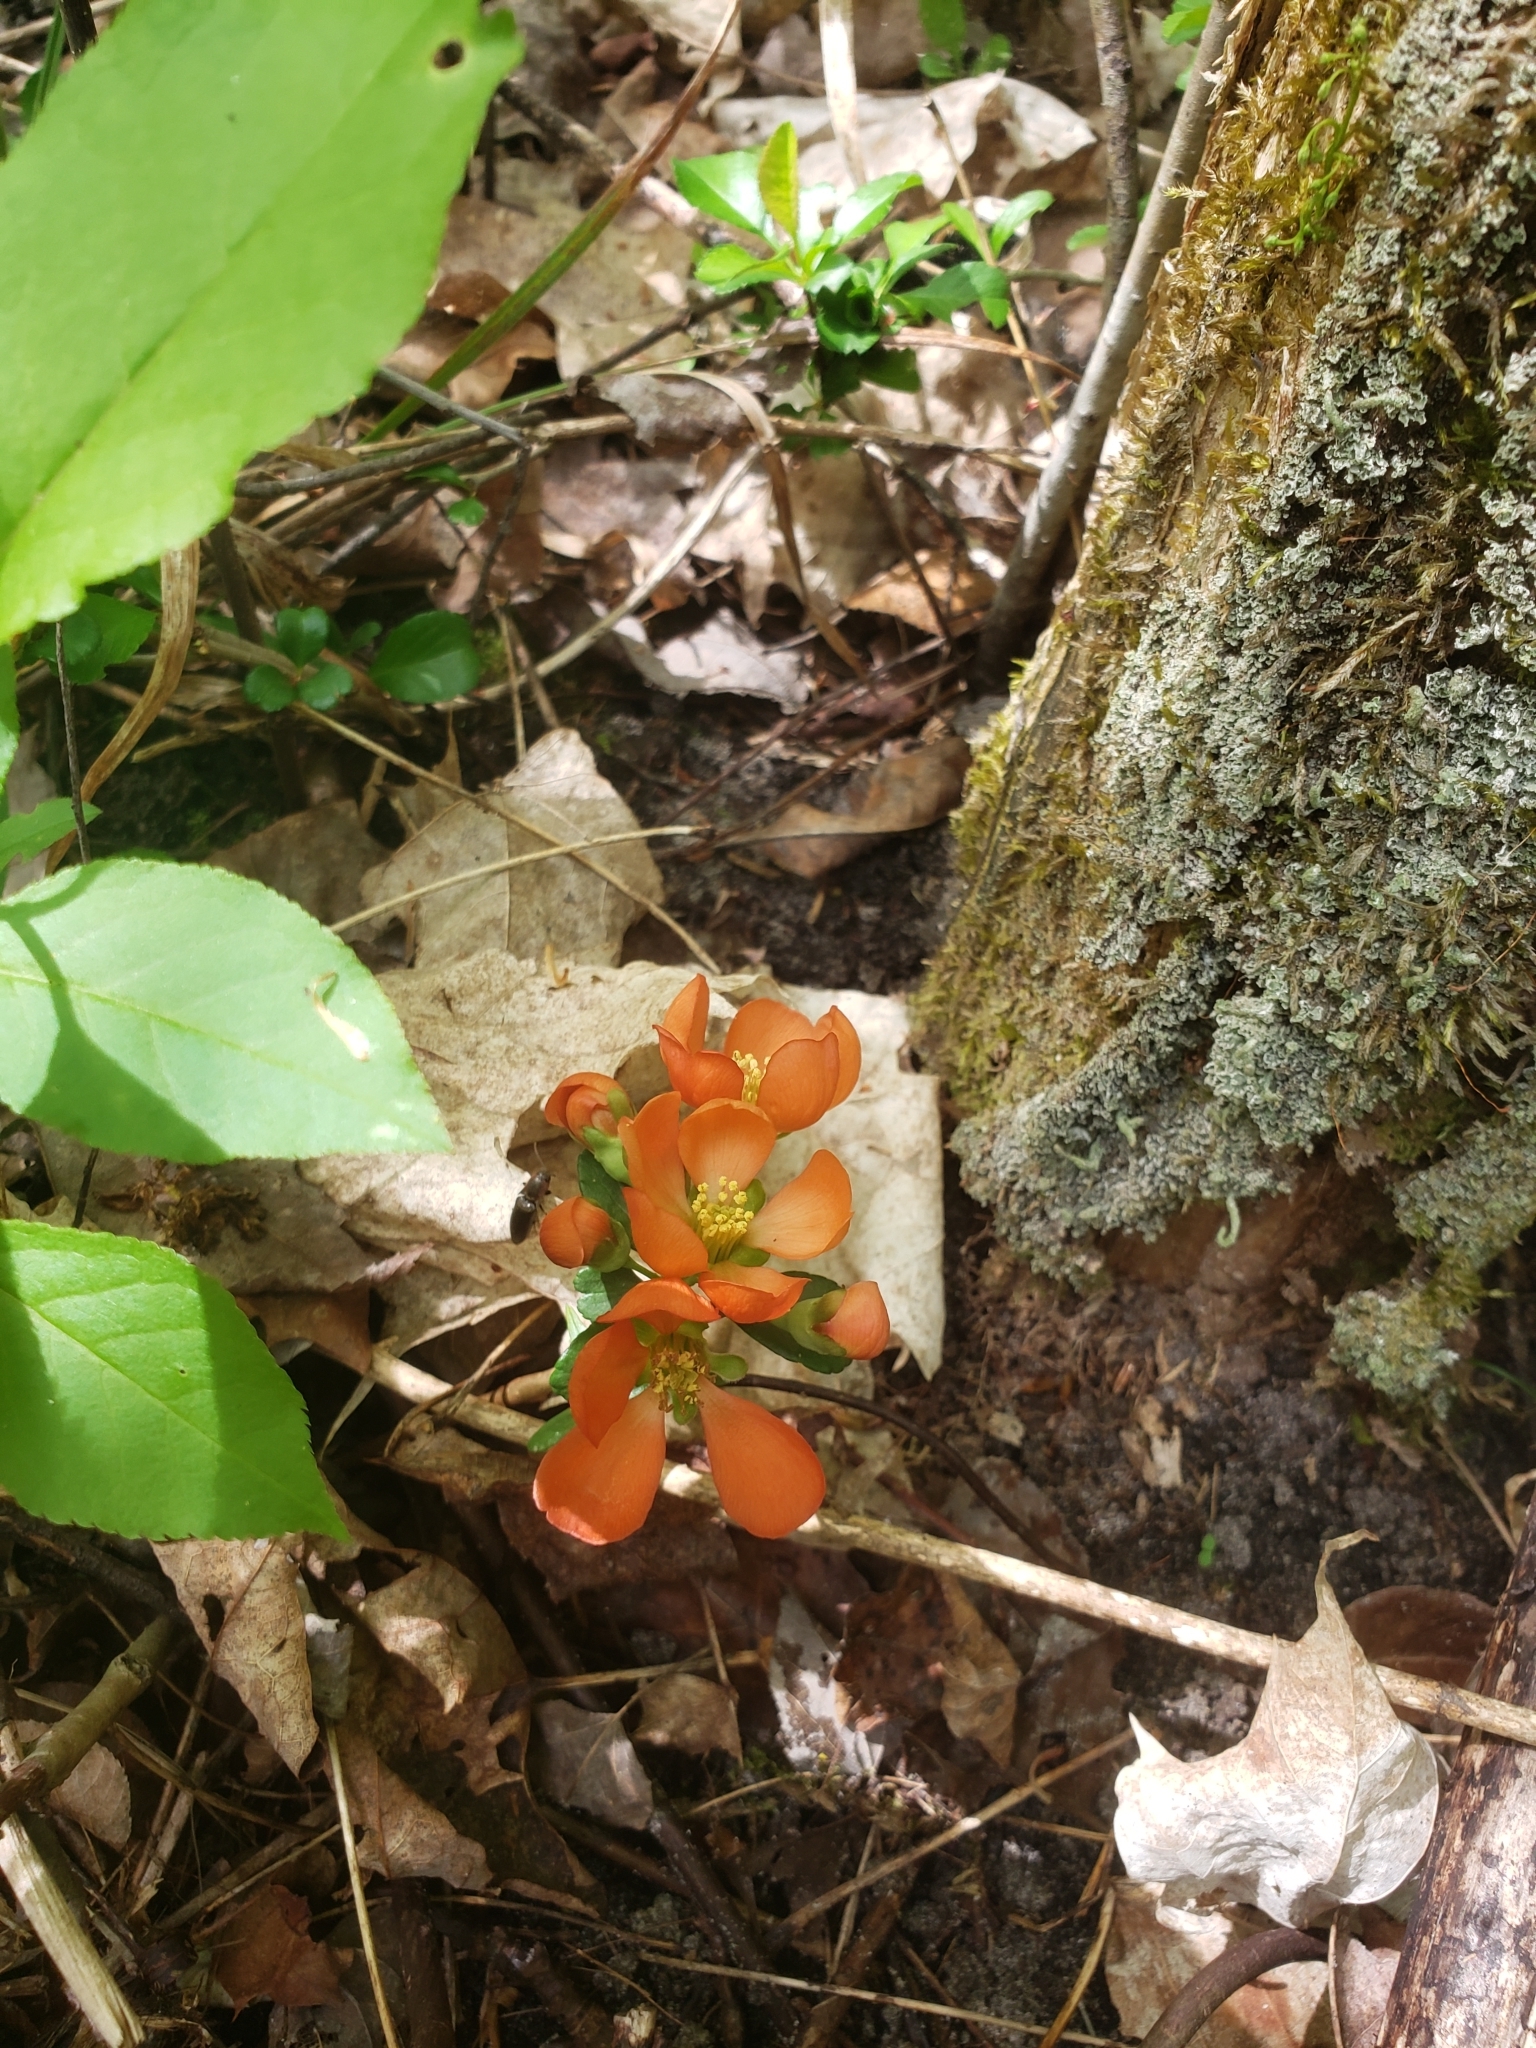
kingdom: Plantae
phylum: Tracheophyta
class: Magnoliopsida
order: Rosales
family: Rosaceae
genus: Chaenomeles
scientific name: Chaenomeles japonica
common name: Japanese quince
